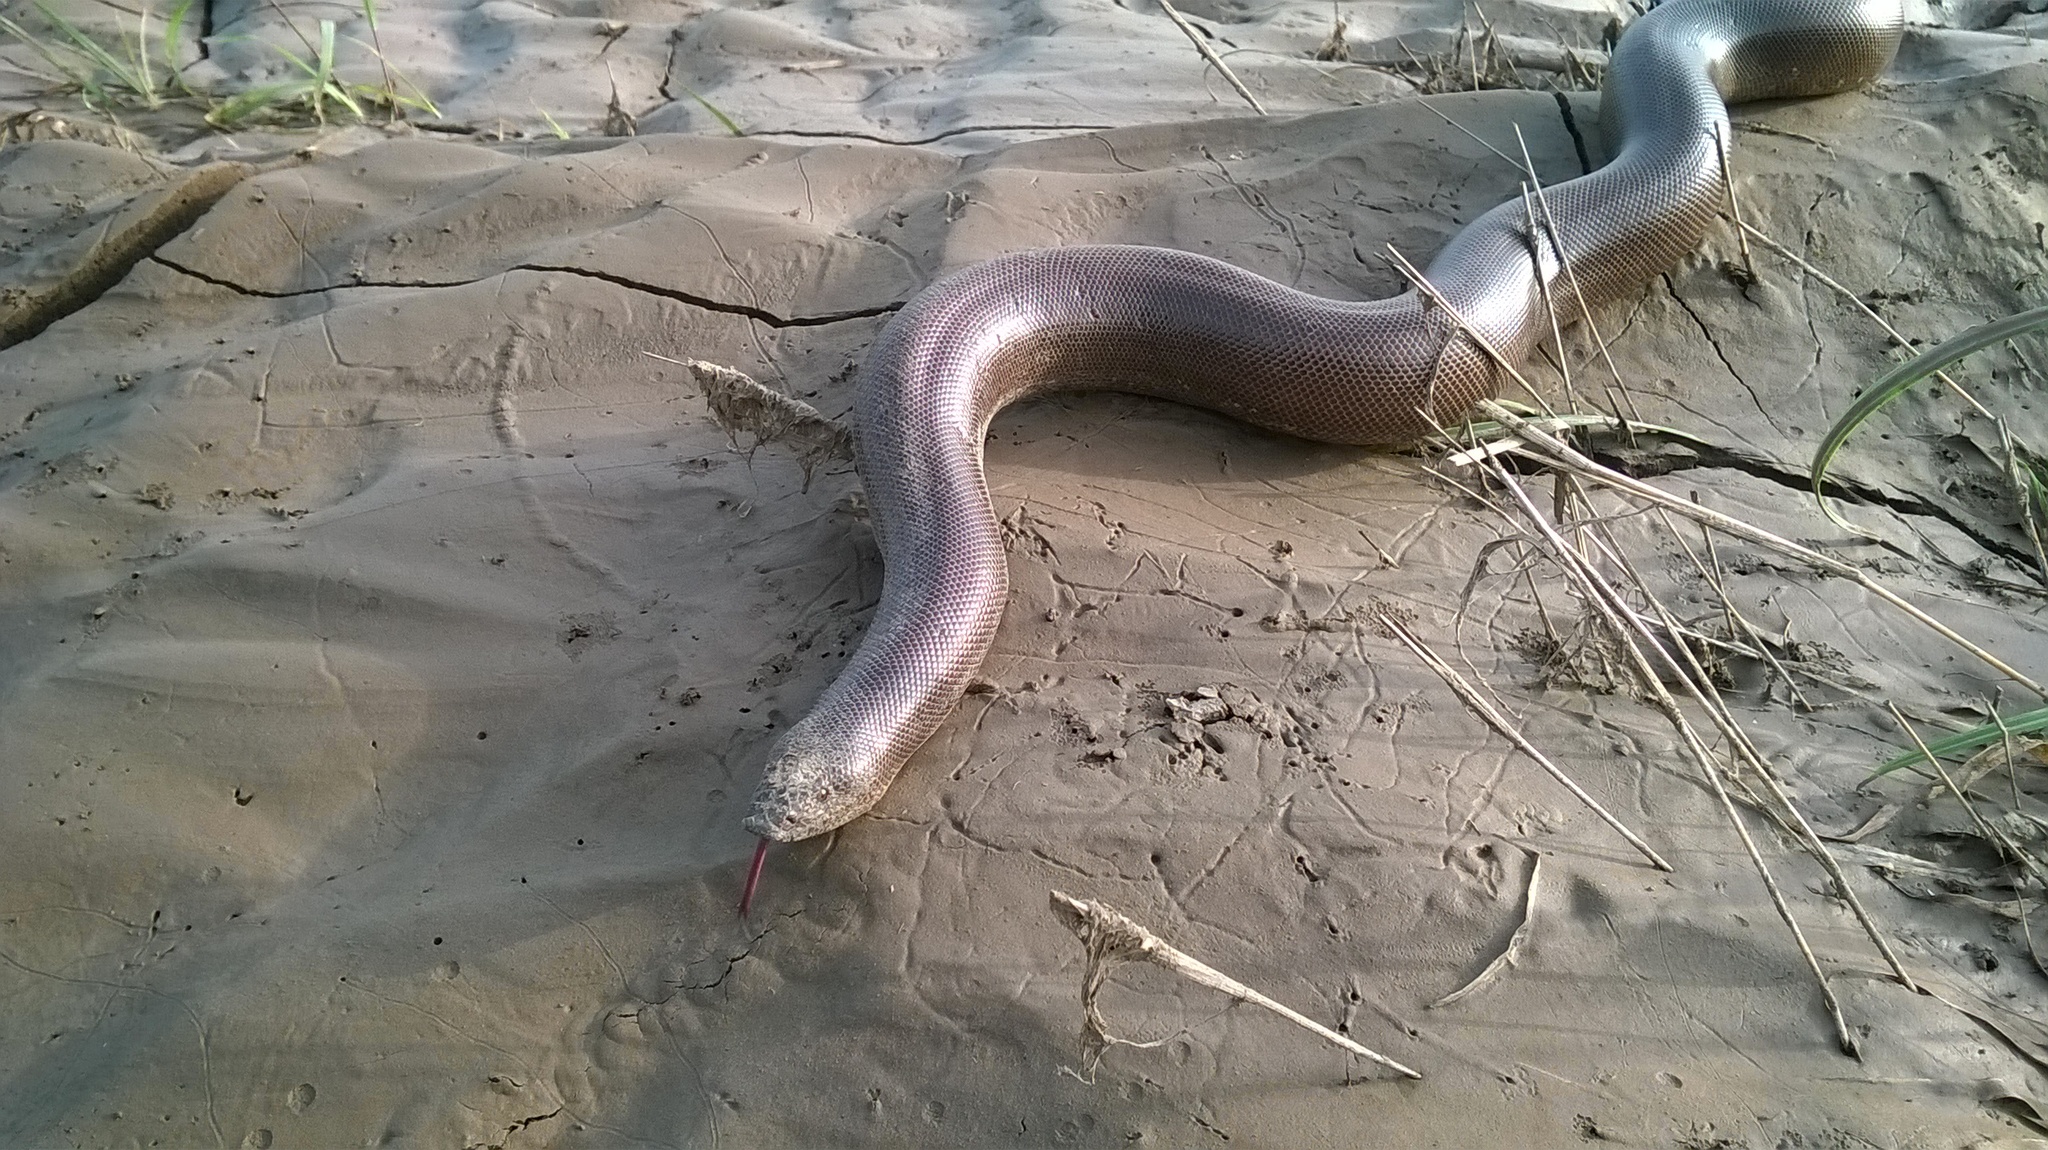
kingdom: Animalia
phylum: Chordata
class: Squamata
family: Boidae
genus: Eryx
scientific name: Eryx johnii
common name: Brown sand boa
